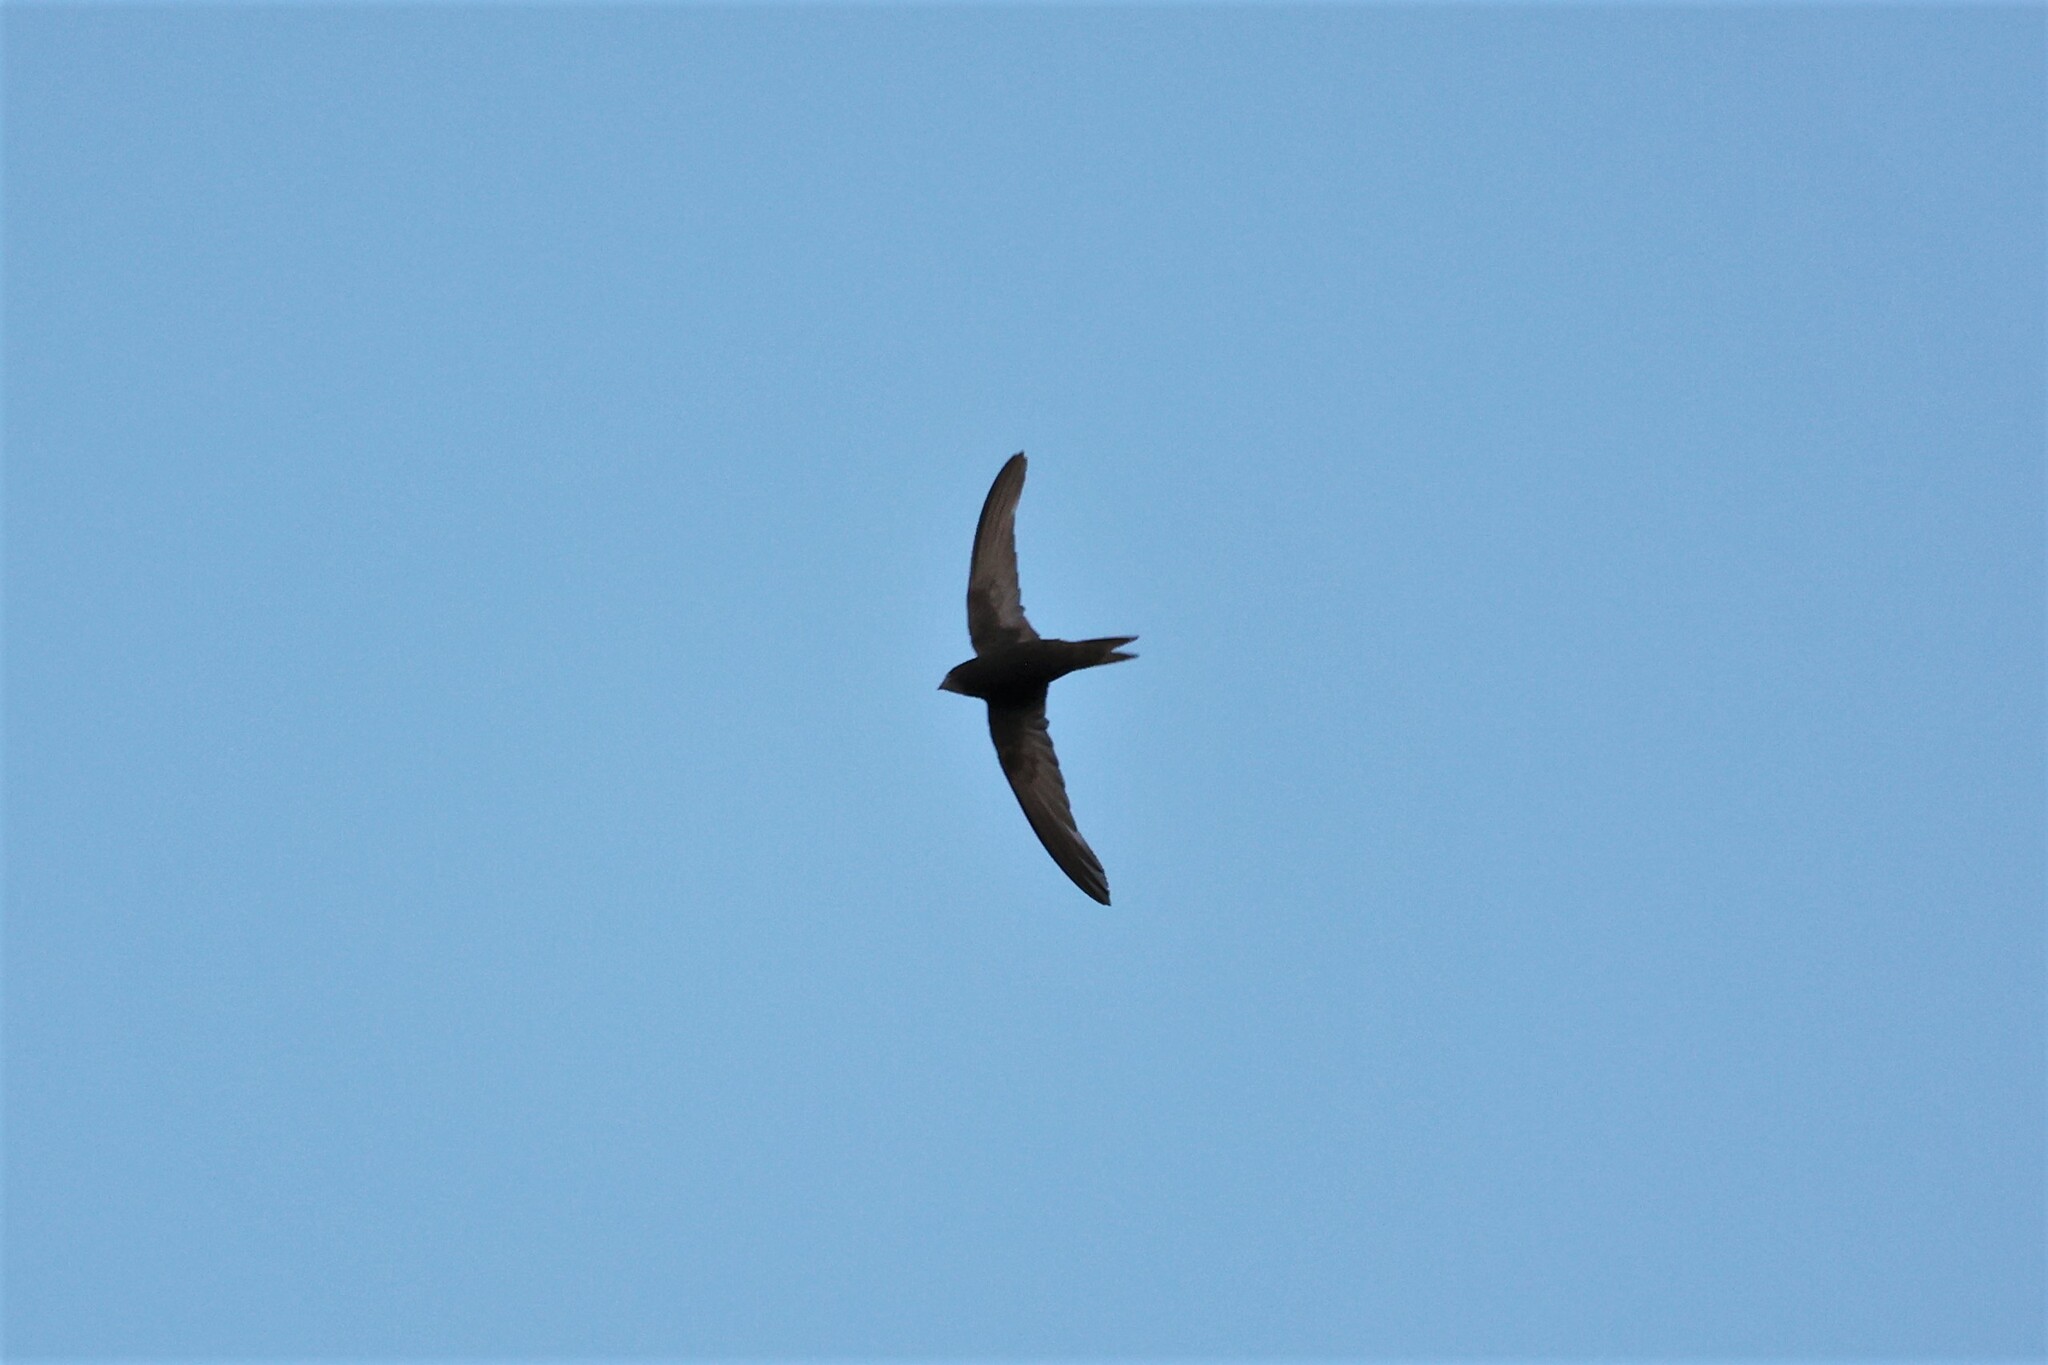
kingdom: Animalia
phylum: Chordata
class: Aves
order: Apodiformes
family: Apodidae
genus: Apus
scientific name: Apus apus
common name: Common swift
